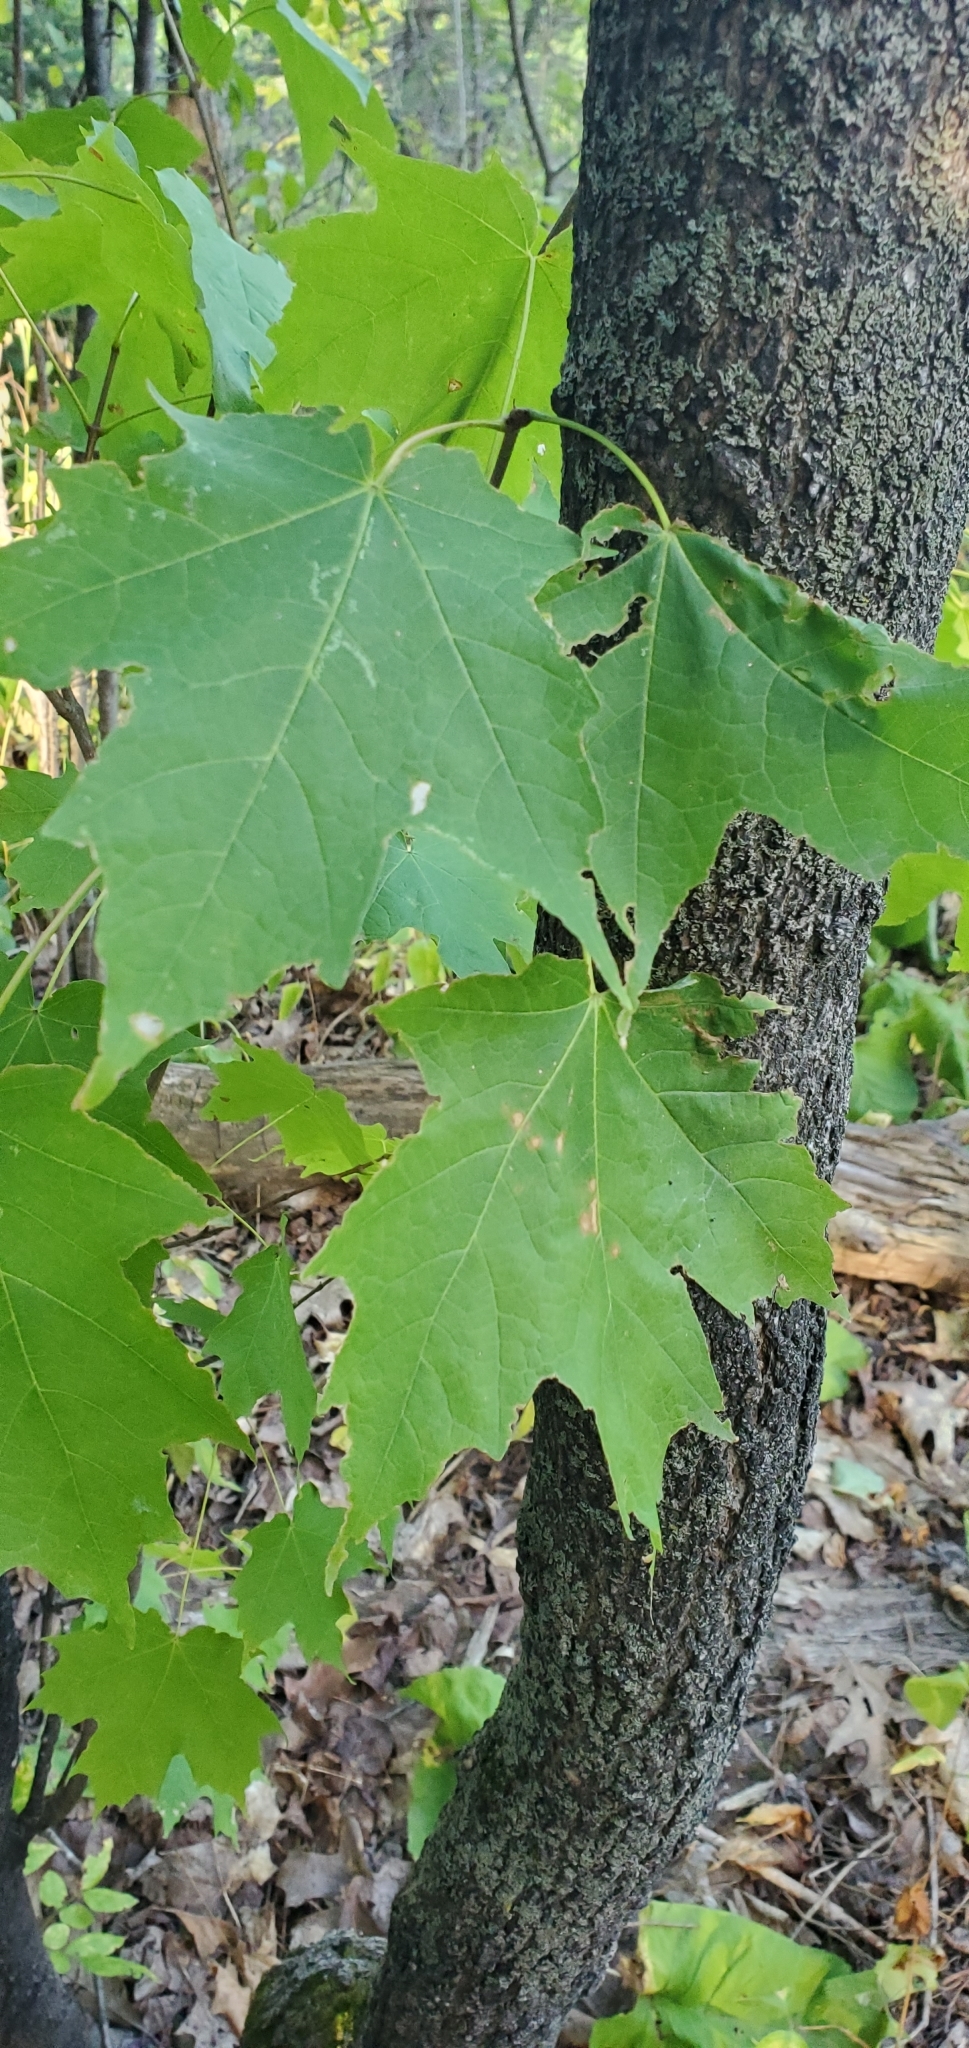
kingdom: Plantae
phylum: Tracheophyta
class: Magnoliopsida
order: Sapindales
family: Sapindaceae
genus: Acer
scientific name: Acer saccharum
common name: Sugar maple
